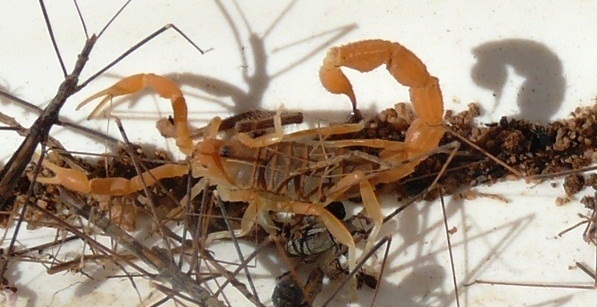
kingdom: Animalia
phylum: Arthropoda
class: Arachnida
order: Scorpiones
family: Buthidae
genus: Parabuthus
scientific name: Parabuthus capensis
